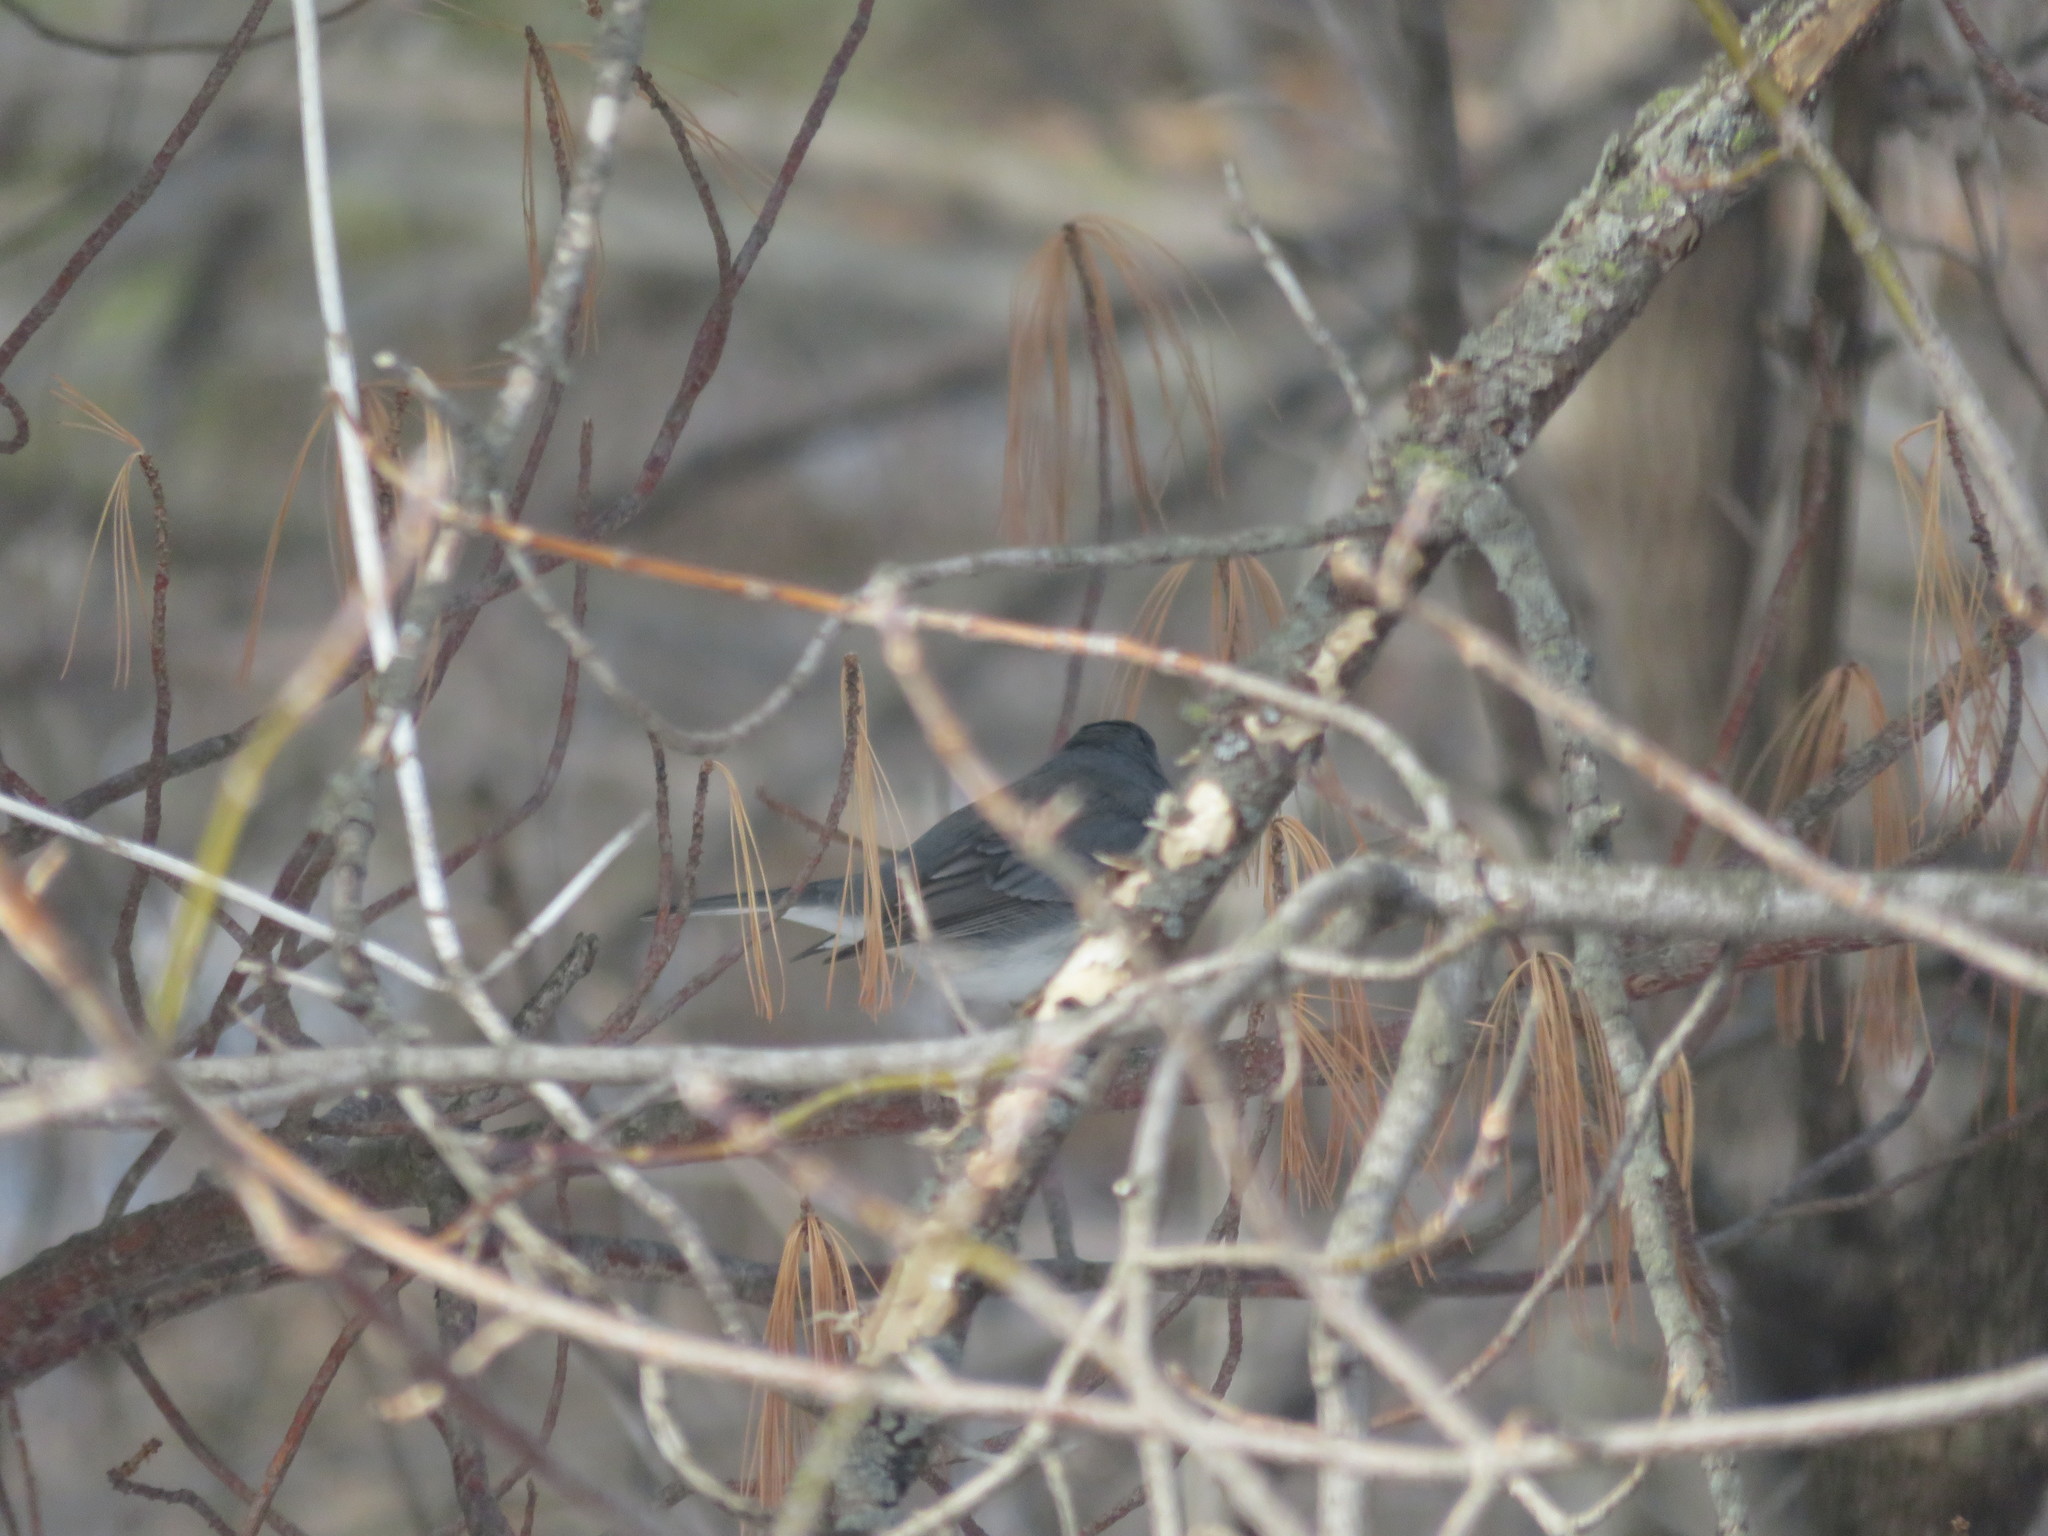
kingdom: Animalia
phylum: Chordata
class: Aves
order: Passeriformes
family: Passerellidae
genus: Junco
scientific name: Junco hyemalis
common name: Dark-eyed junco
